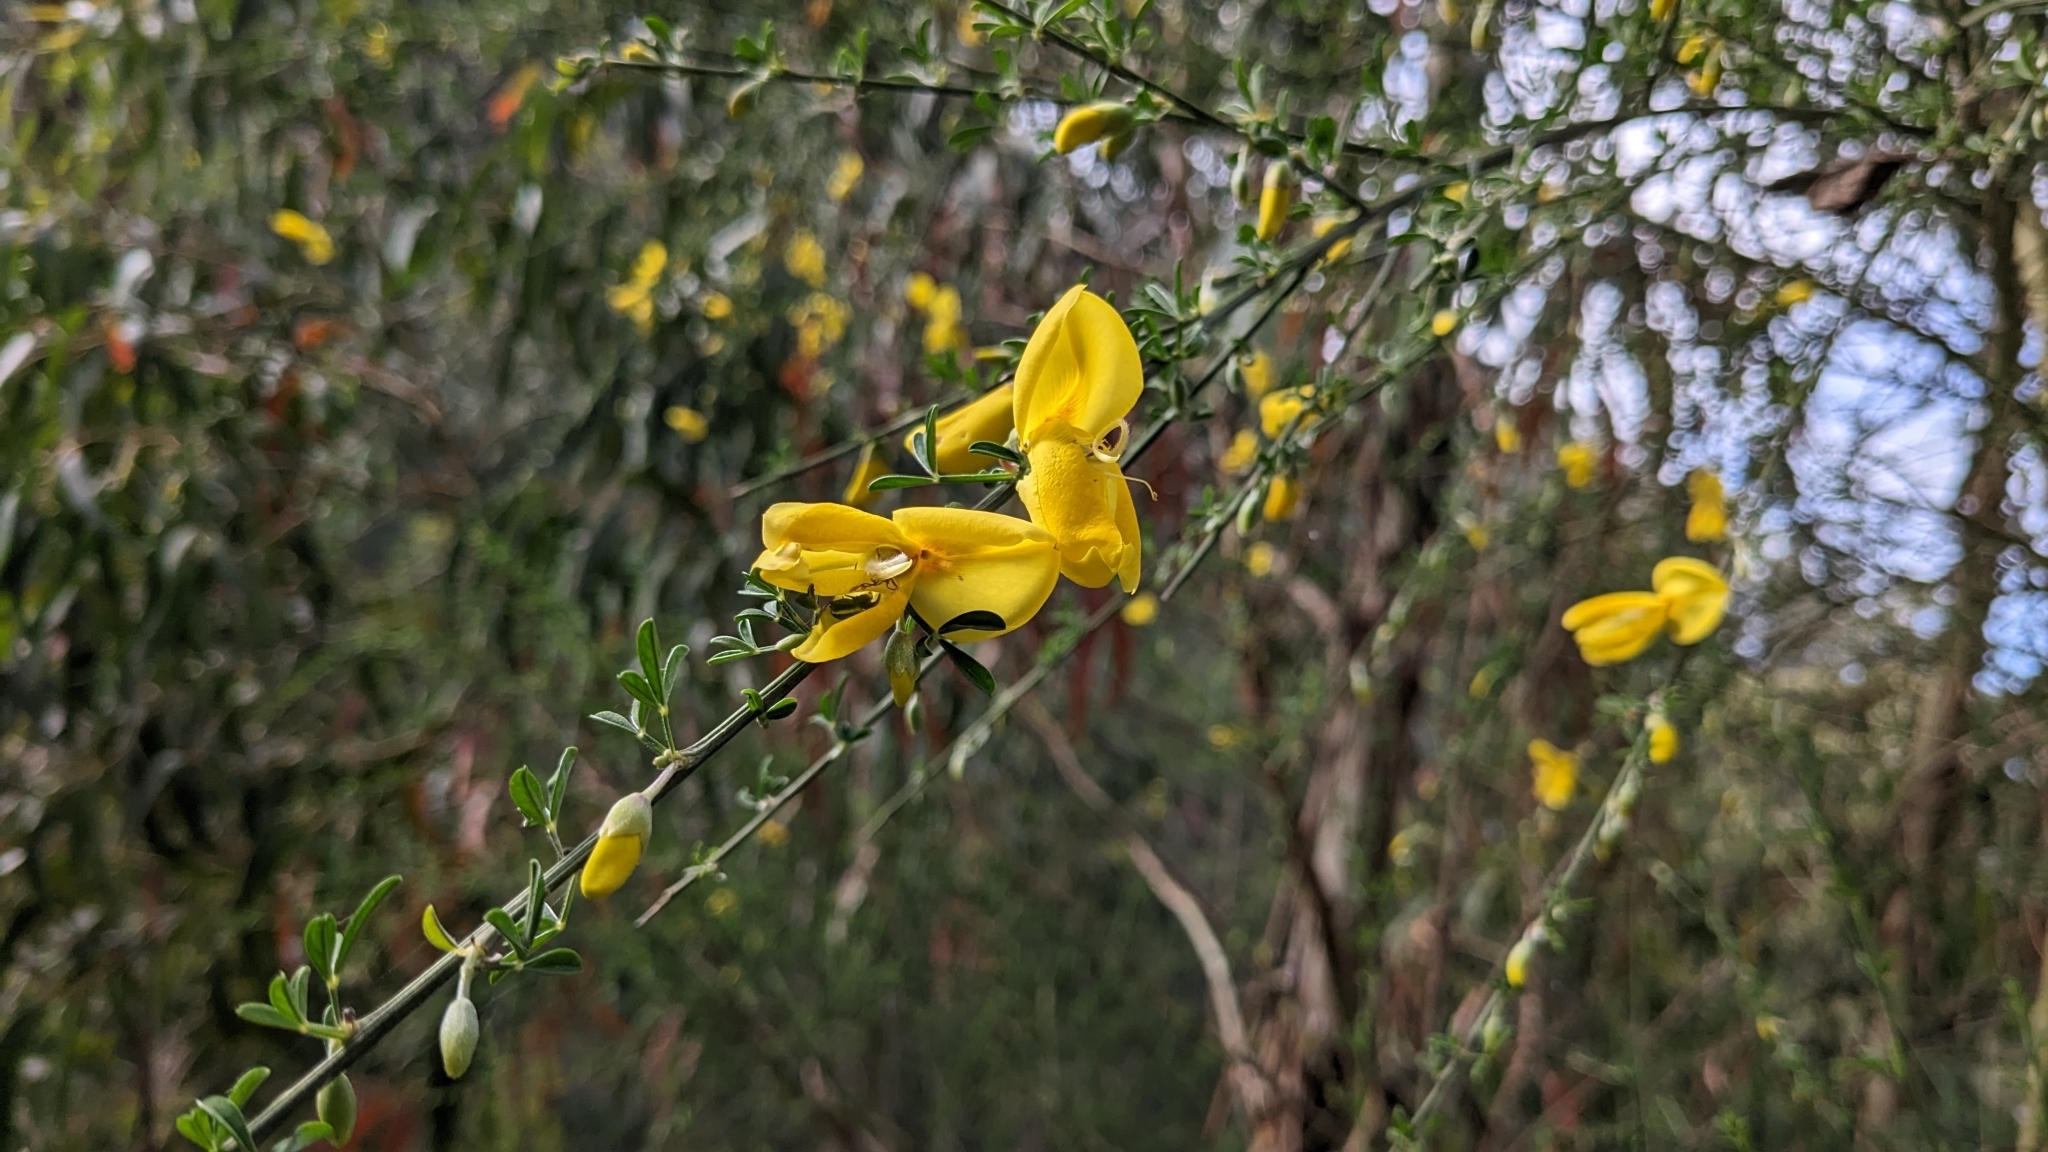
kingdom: Plantae
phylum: Tracheophyta
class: Magnoliopsida
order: Fabales
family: Fabaceae
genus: Cytisus
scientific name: Cytisus scoparius
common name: Scotch broom
